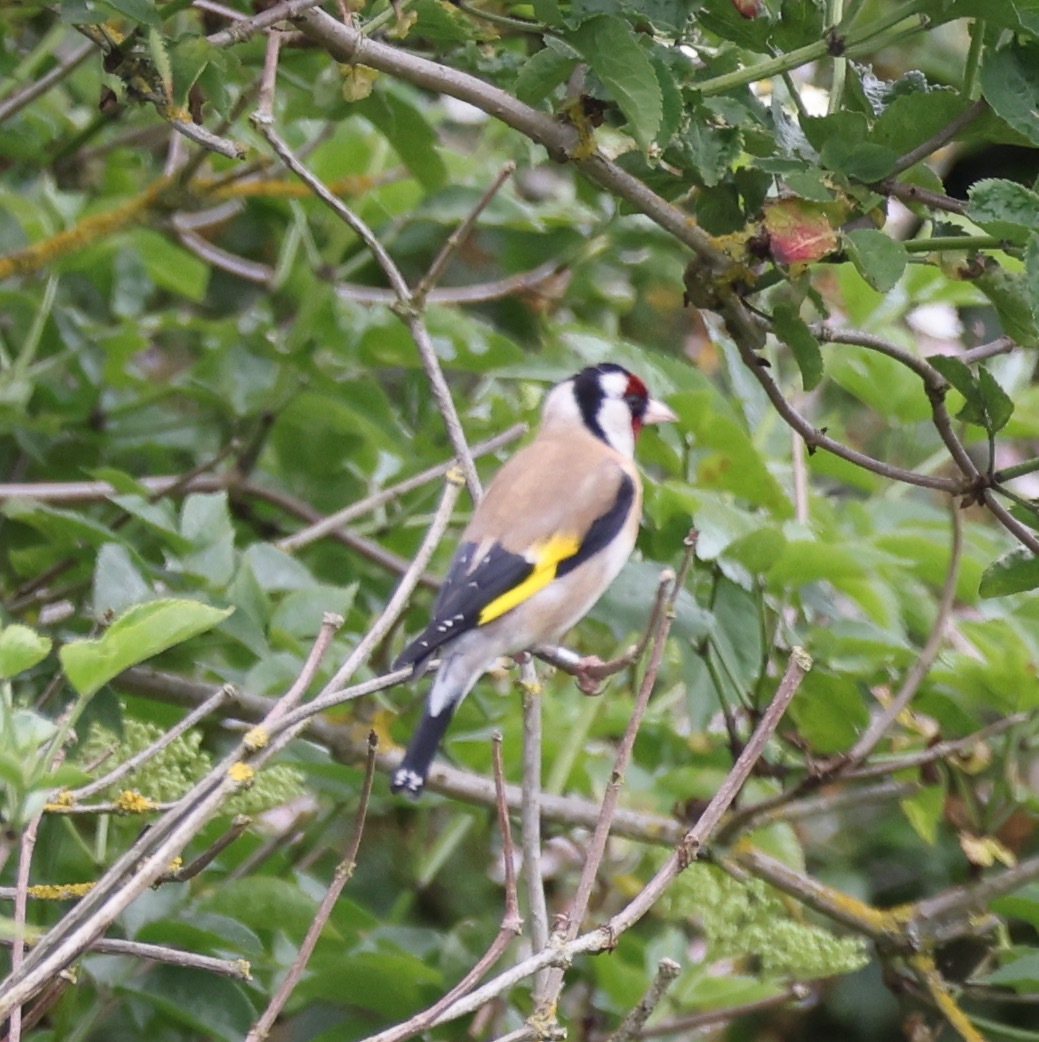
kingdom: Animalia
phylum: Chordata
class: Aves
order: Passeriformes
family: Fringillidae
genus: Carduelis
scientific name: Carduelis carduelis
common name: European goldfinch
